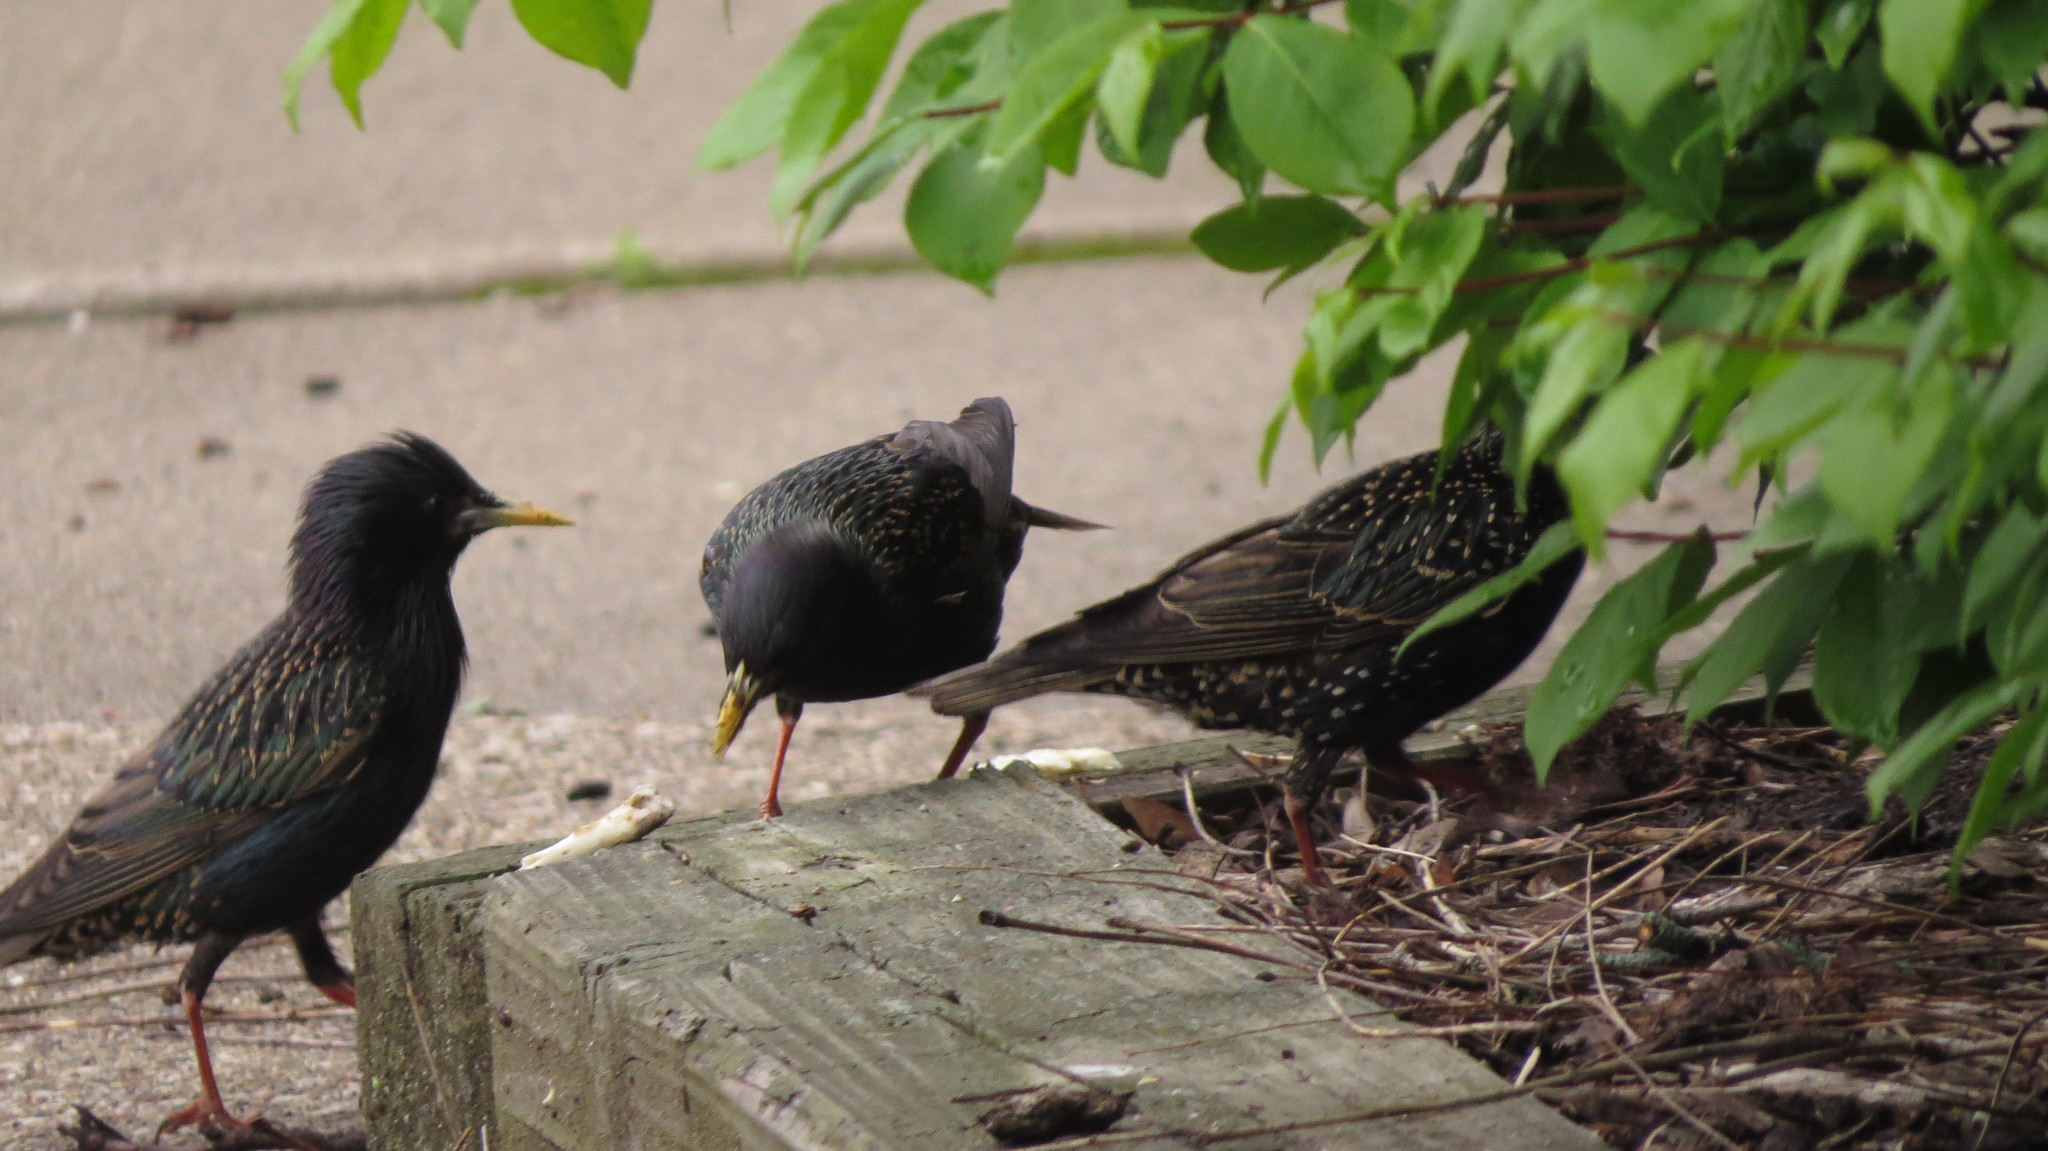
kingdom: Animalia
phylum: Chordata
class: Aves
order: Passeriformes
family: Sturnidae
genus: Sturnus
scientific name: Sturnus vulgaris
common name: Common starling
